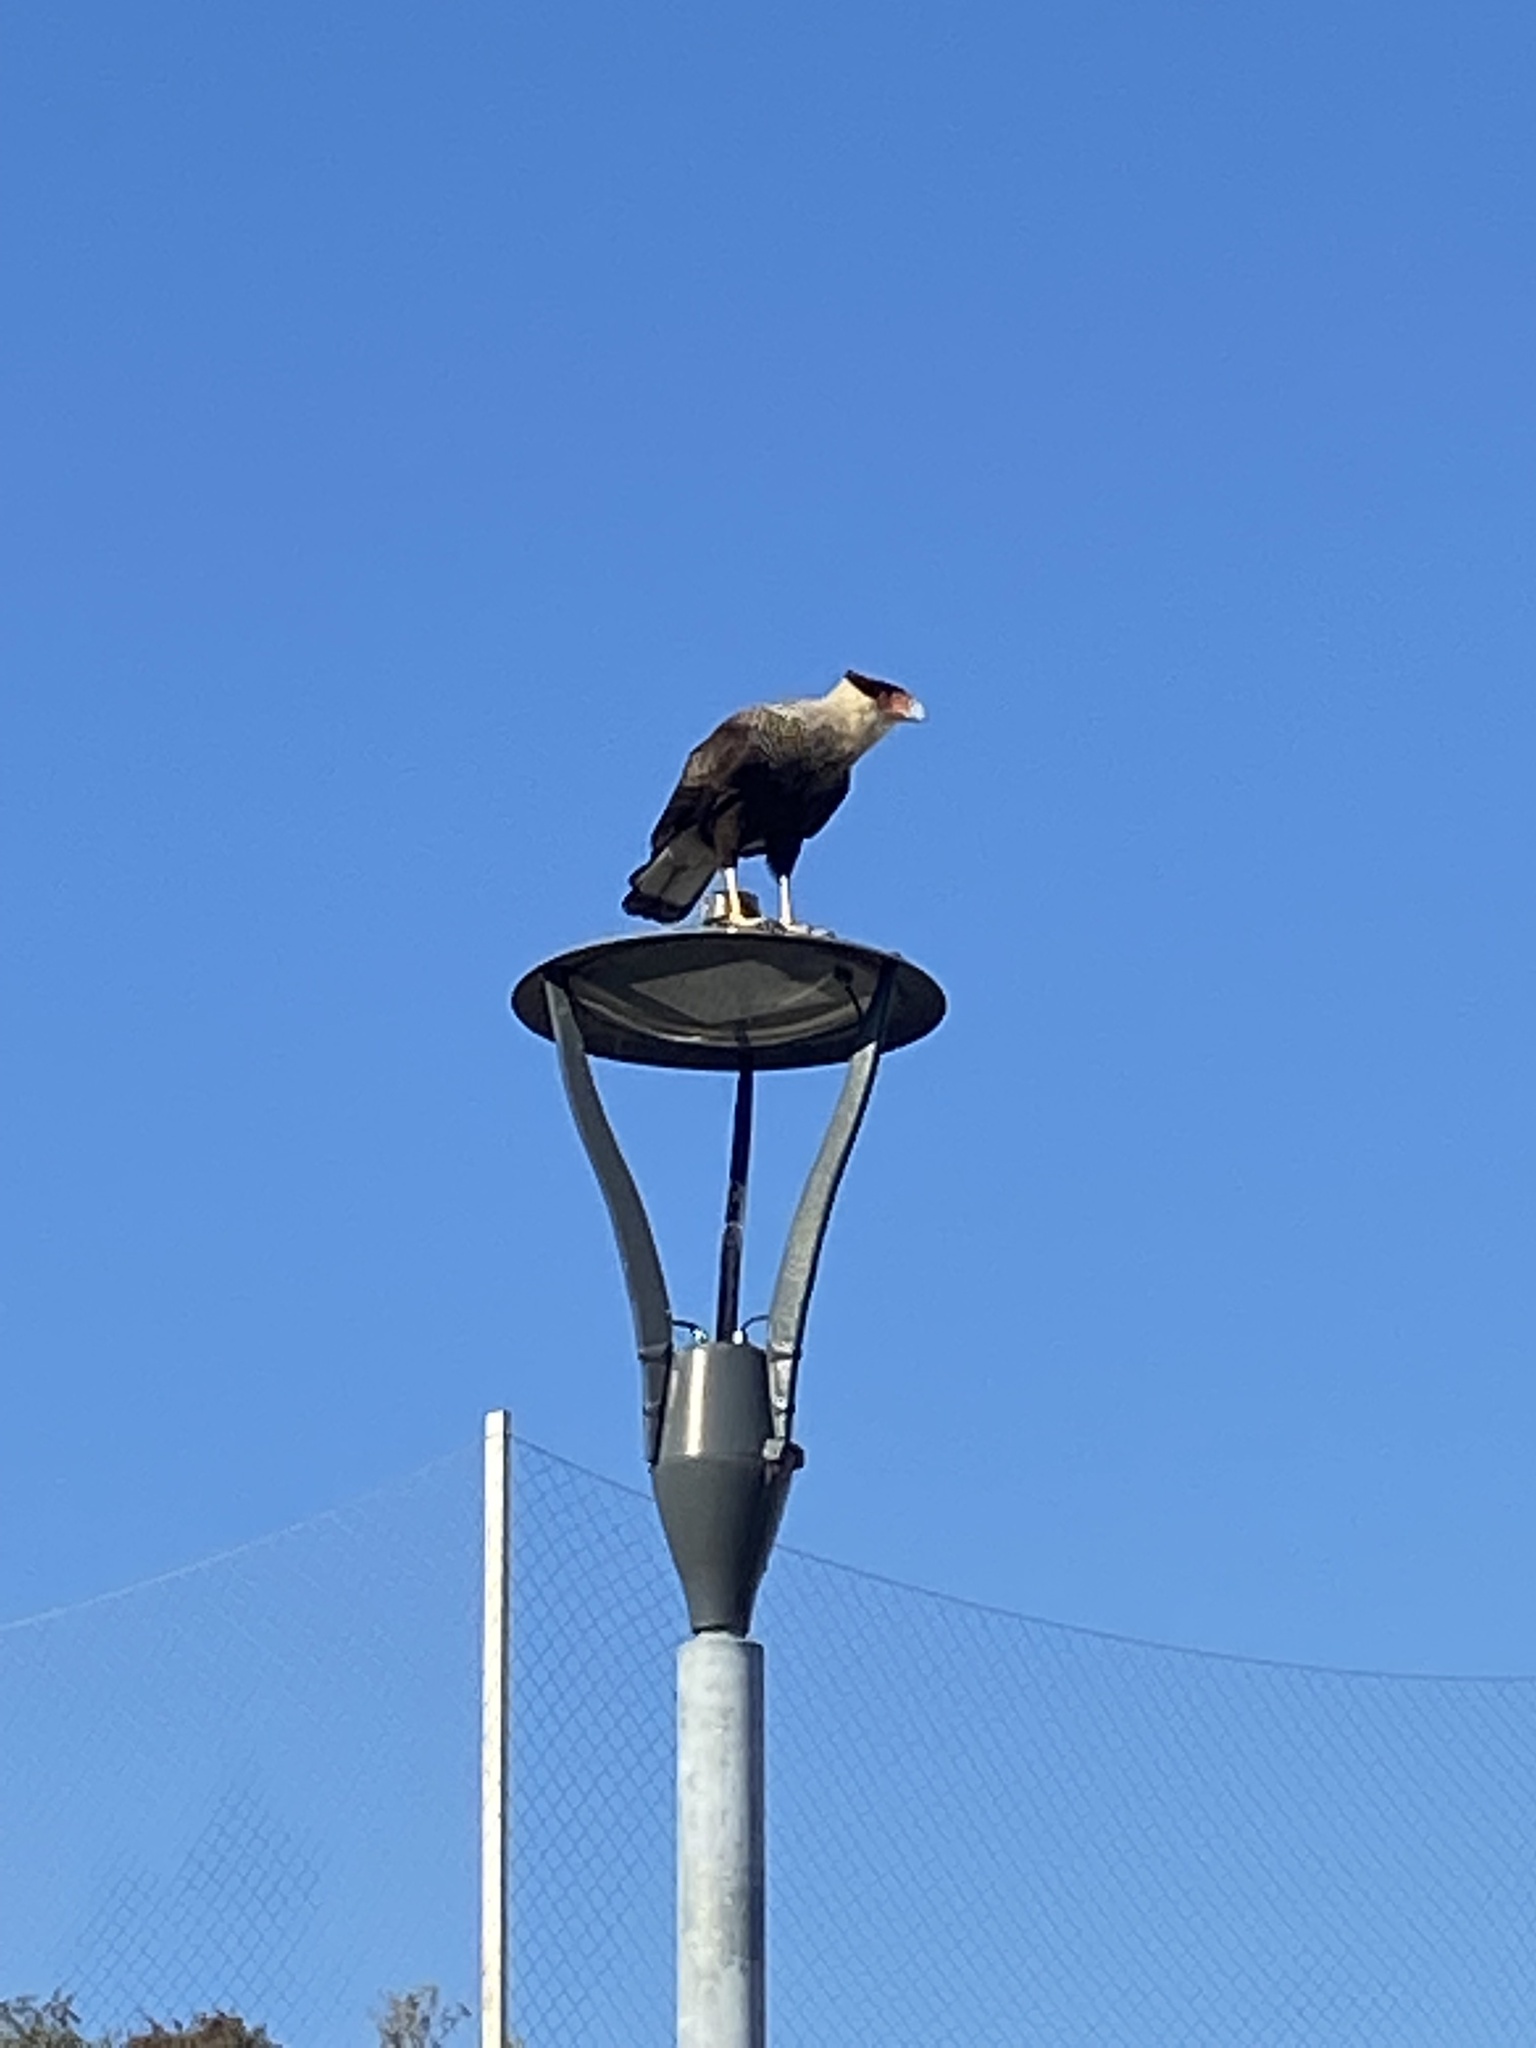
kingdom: Animalia
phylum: Chordata
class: Aves
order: Falconiformes
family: Falconidae
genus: Caracara
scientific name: Caracara plancus
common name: Southern caracara
